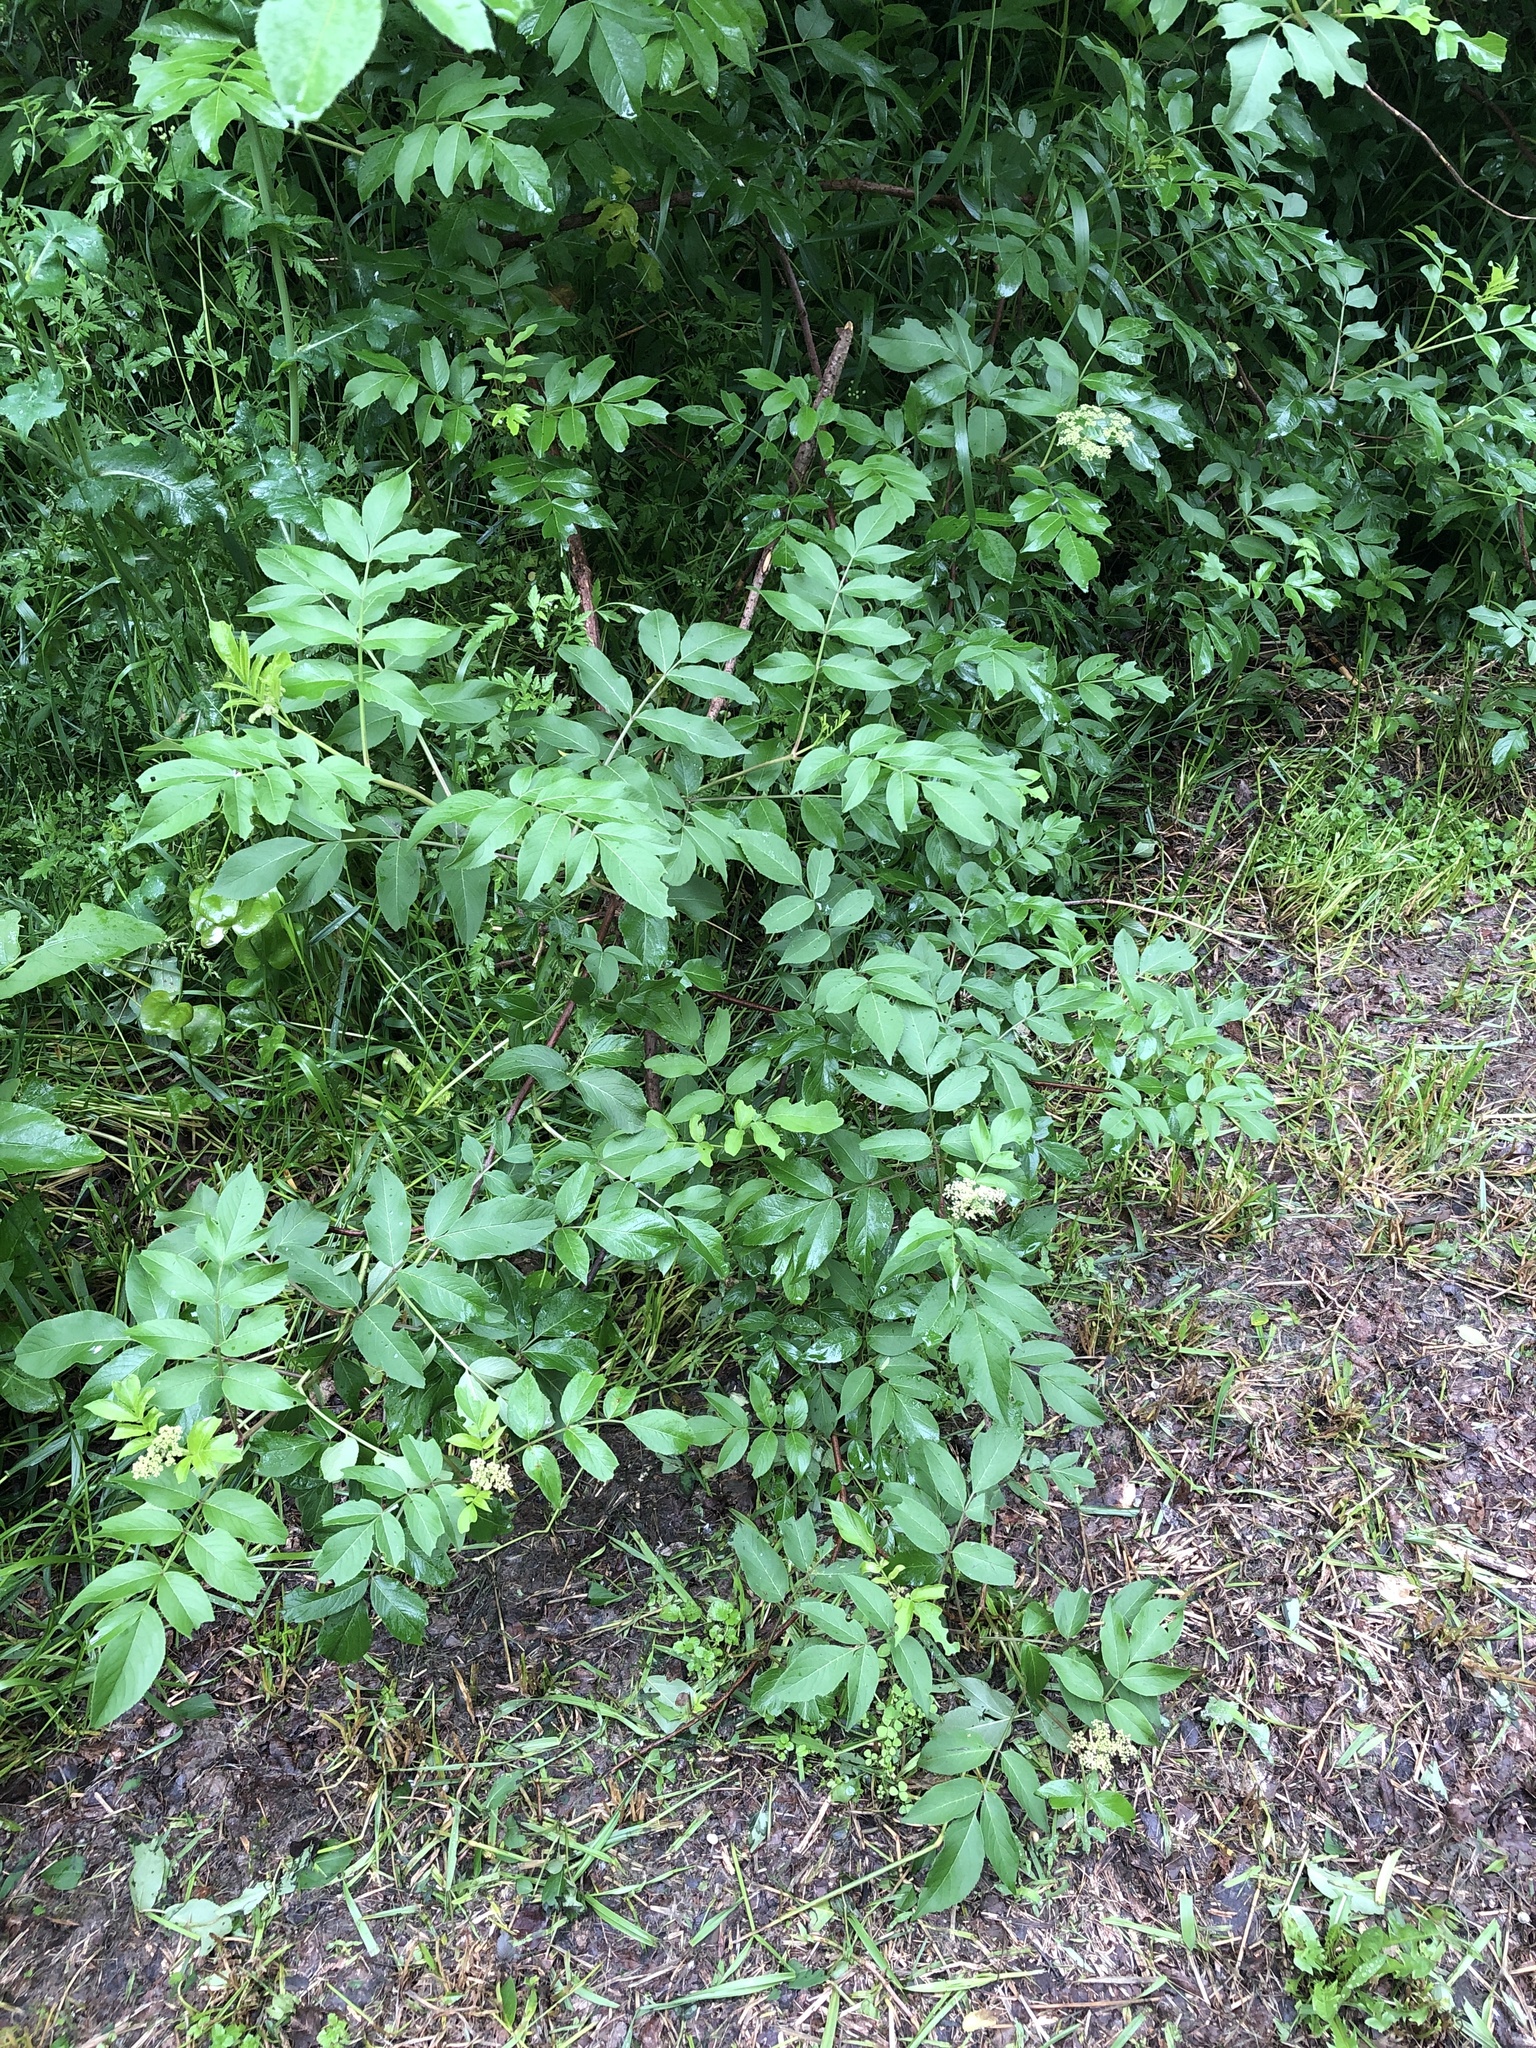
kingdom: Plantae
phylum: Tracheophyta
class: Magnoliopsida
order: Dipsacales
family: Viburnaceae
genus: Sambucus
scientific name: Sambucus canadensis
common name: American elder
